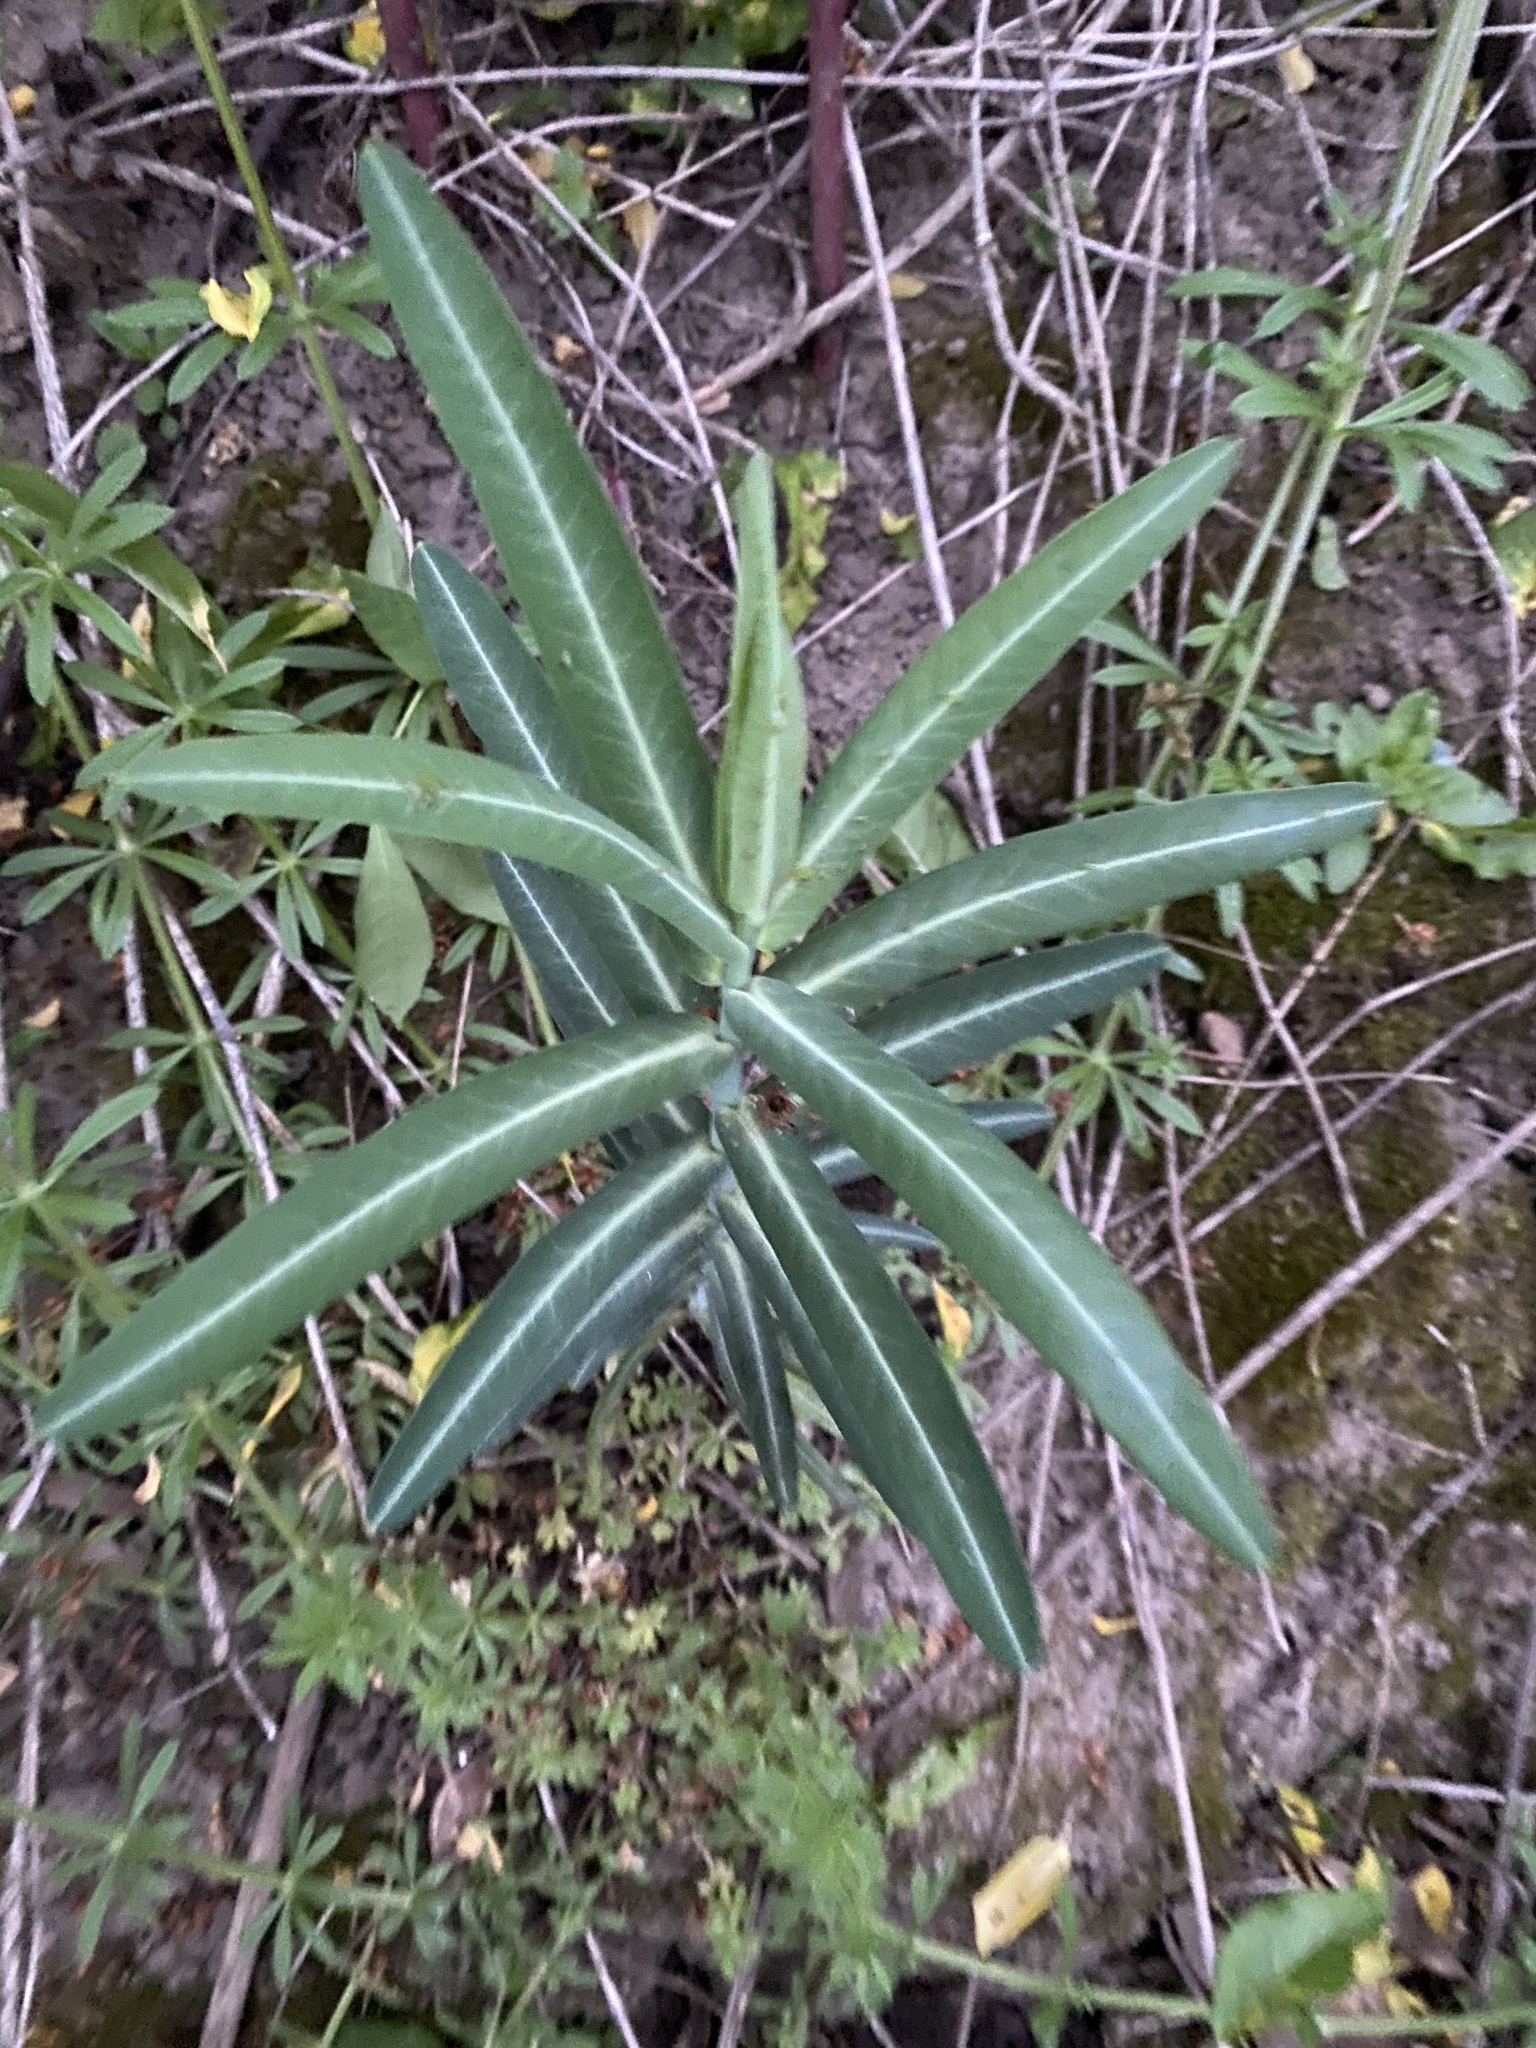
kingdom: Plantae
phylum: Tracheophyta
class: Magnoliopsida
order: Malpighiales
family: Euphorbiaceae
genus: Euphorbia
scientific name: Euphorbia lathyris
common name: Caper spurge
